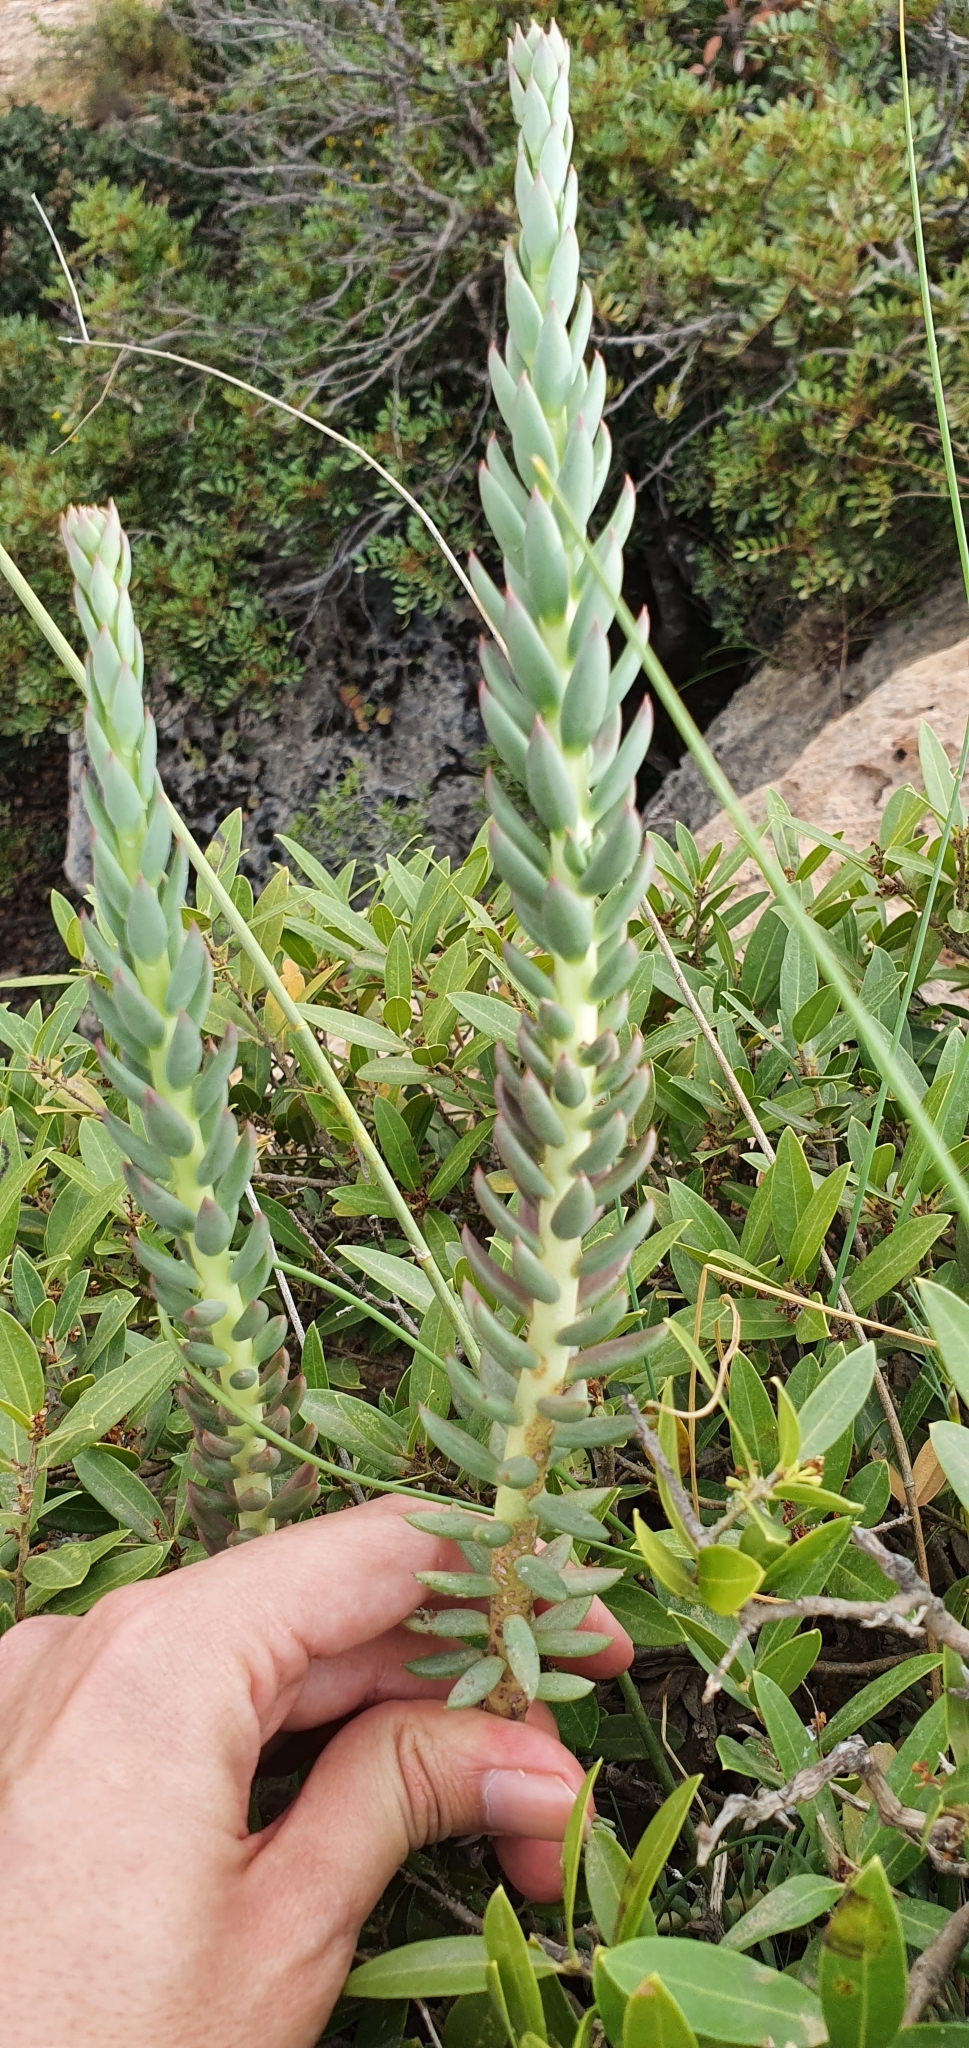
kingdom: Plantae
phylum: Tracheophyta
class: Magnoliopsida
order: Saxifragales
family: Crassulaceae
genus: Petrosedum
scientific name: Petrosedum sediforme
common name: Pale stonecrop
